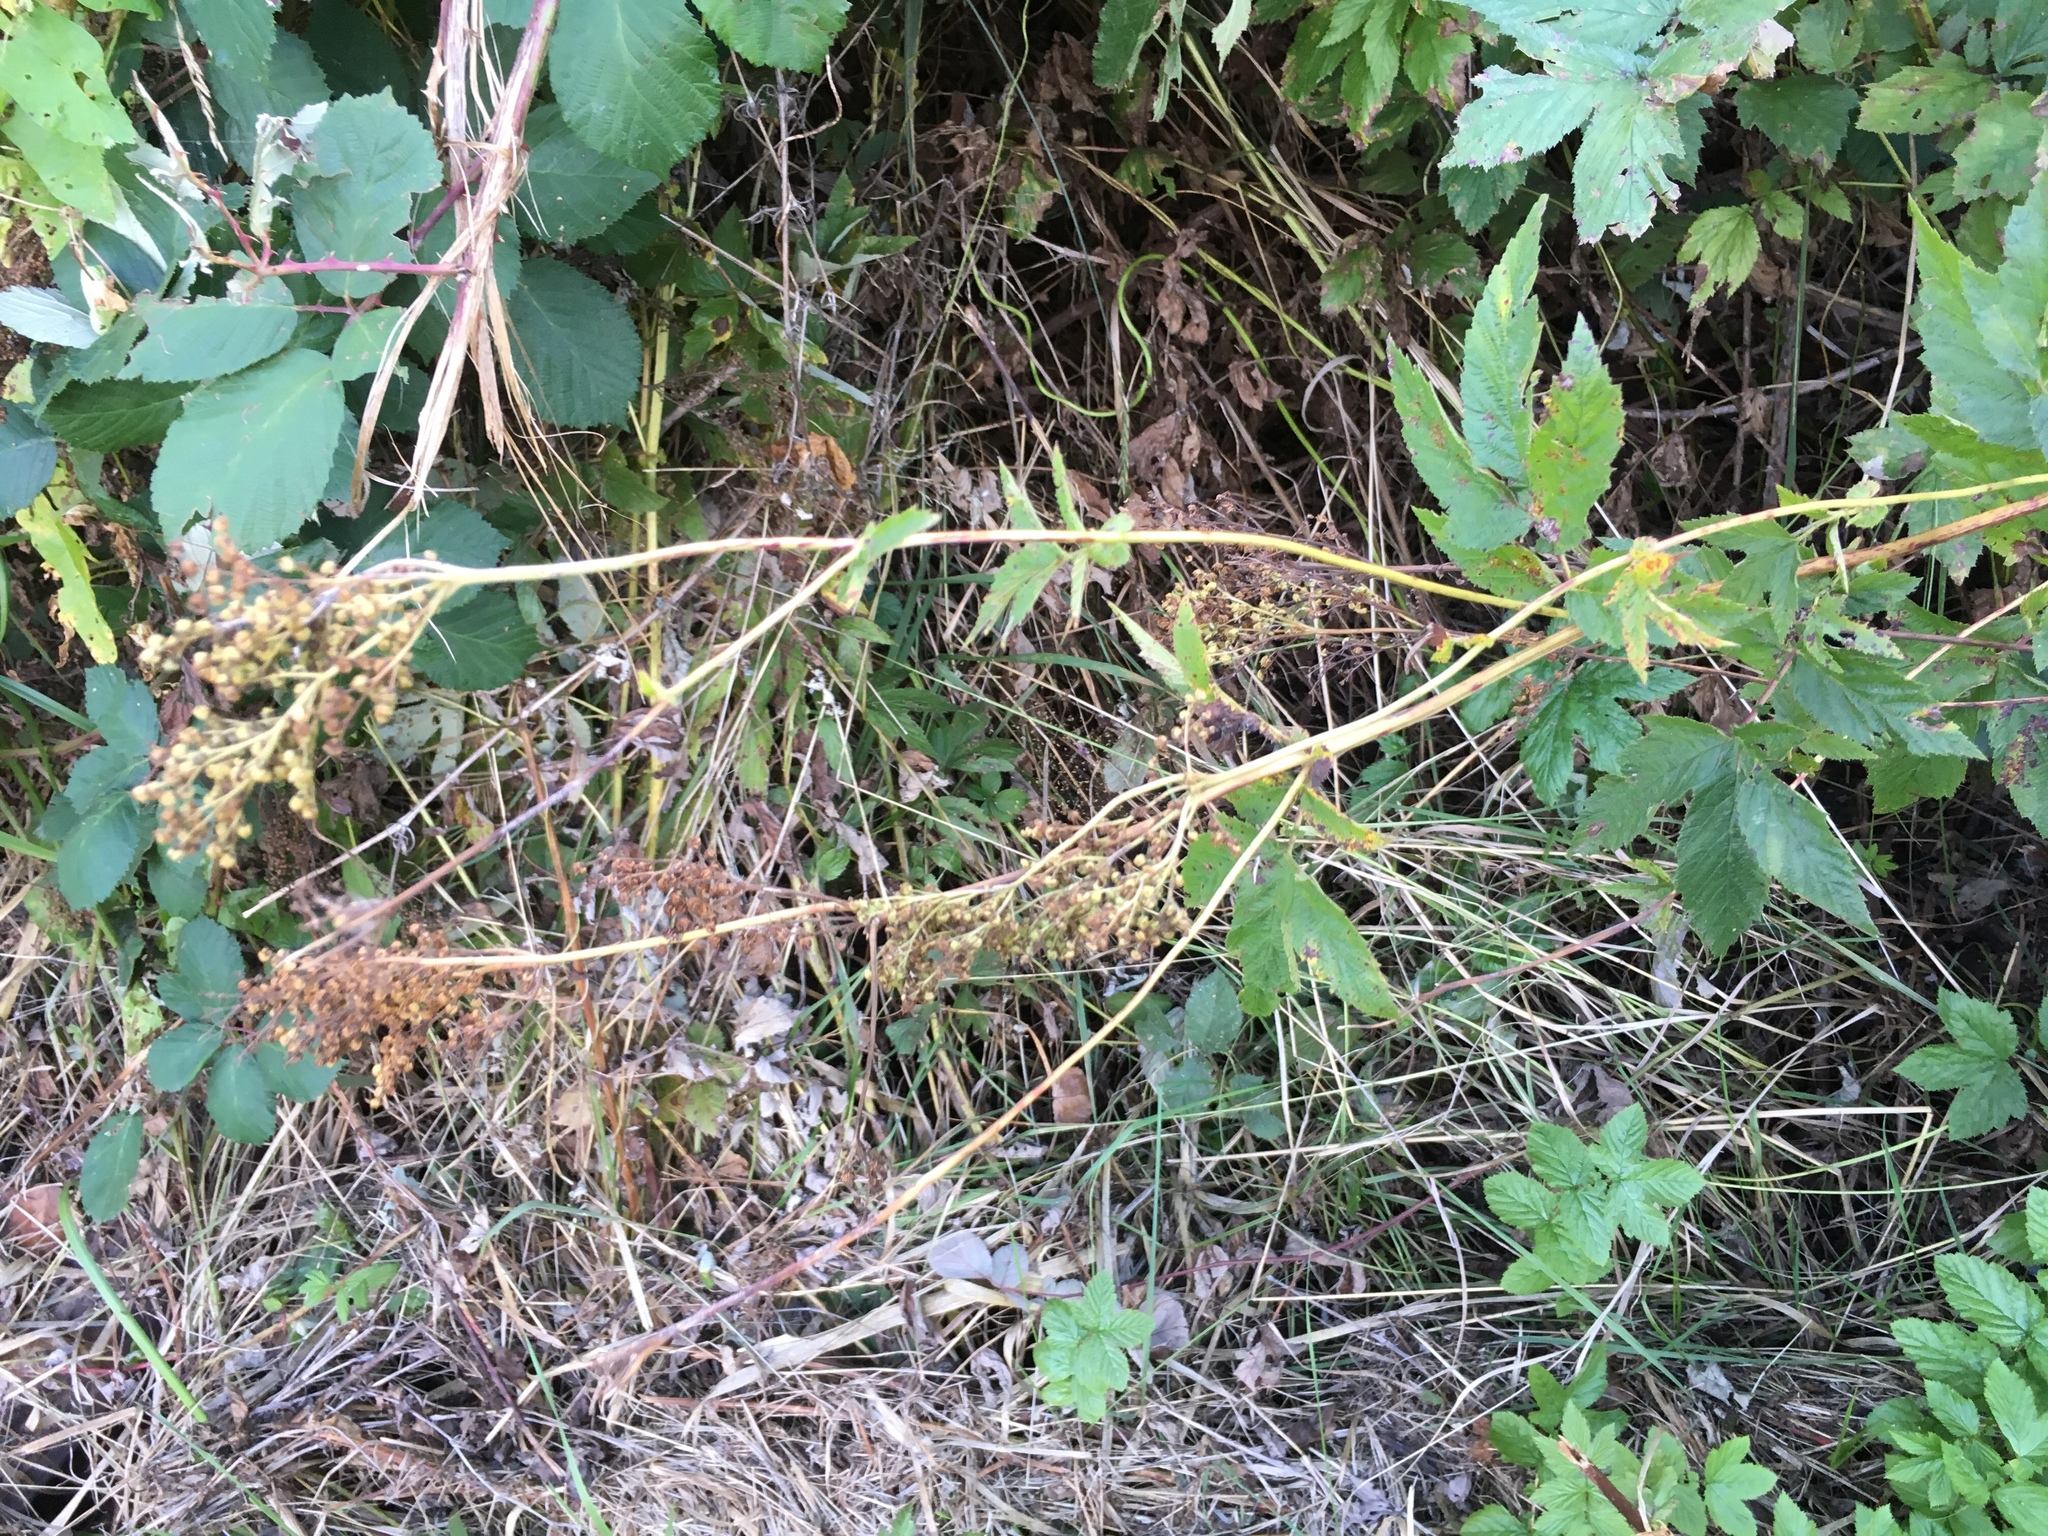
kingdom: Plantae
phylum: Tracheophyta
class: Magnoliopsida
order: Rosales
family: Rosaceae
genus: Filipendula
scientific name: Filipendula ulmaria
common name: Meadowsweet
